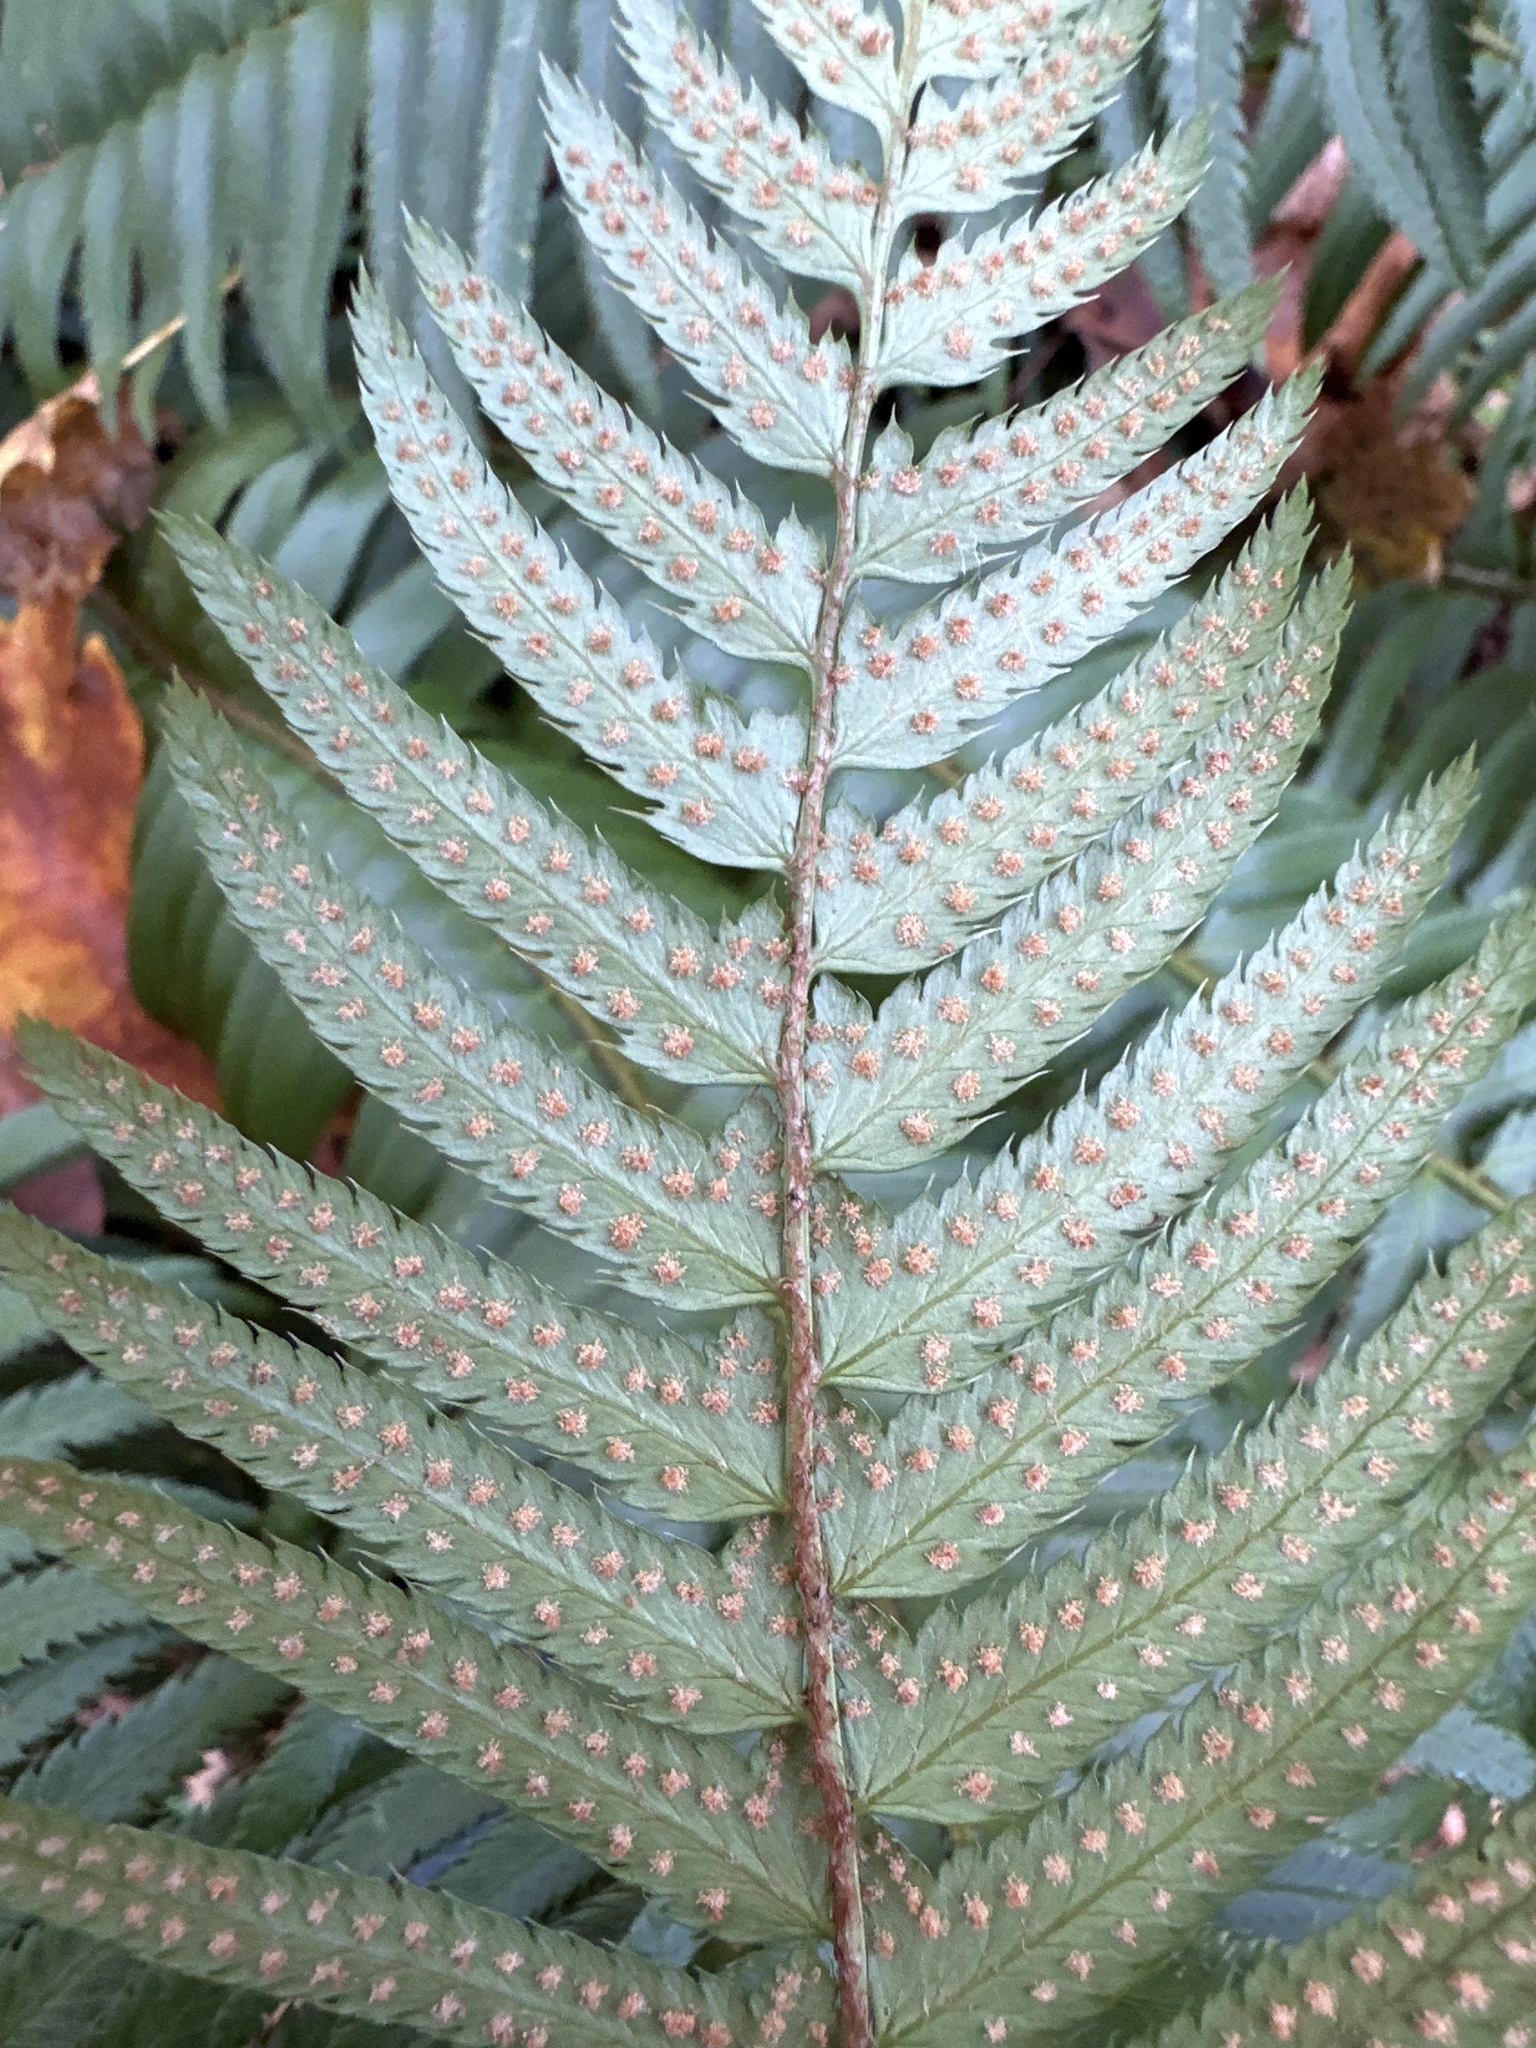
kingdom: Plantae
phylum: Tracheophyta
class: Polypodiopsida
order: Polypodiales
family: Dryopteridaceae
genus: Polystichum
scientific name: Polystichum munitum
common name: Western sword-fern
